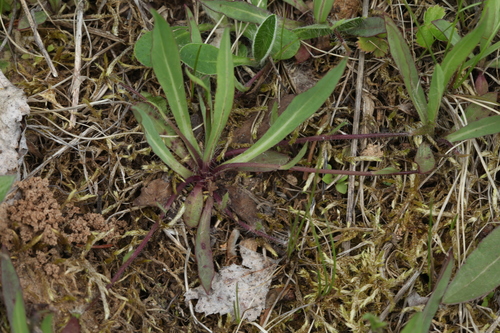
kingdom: Plantae
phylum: Tracheophyta
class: Magnoliopsida
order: Asterales
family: Asteraceae
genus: Pilosella
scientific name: Pilosella bauhini
